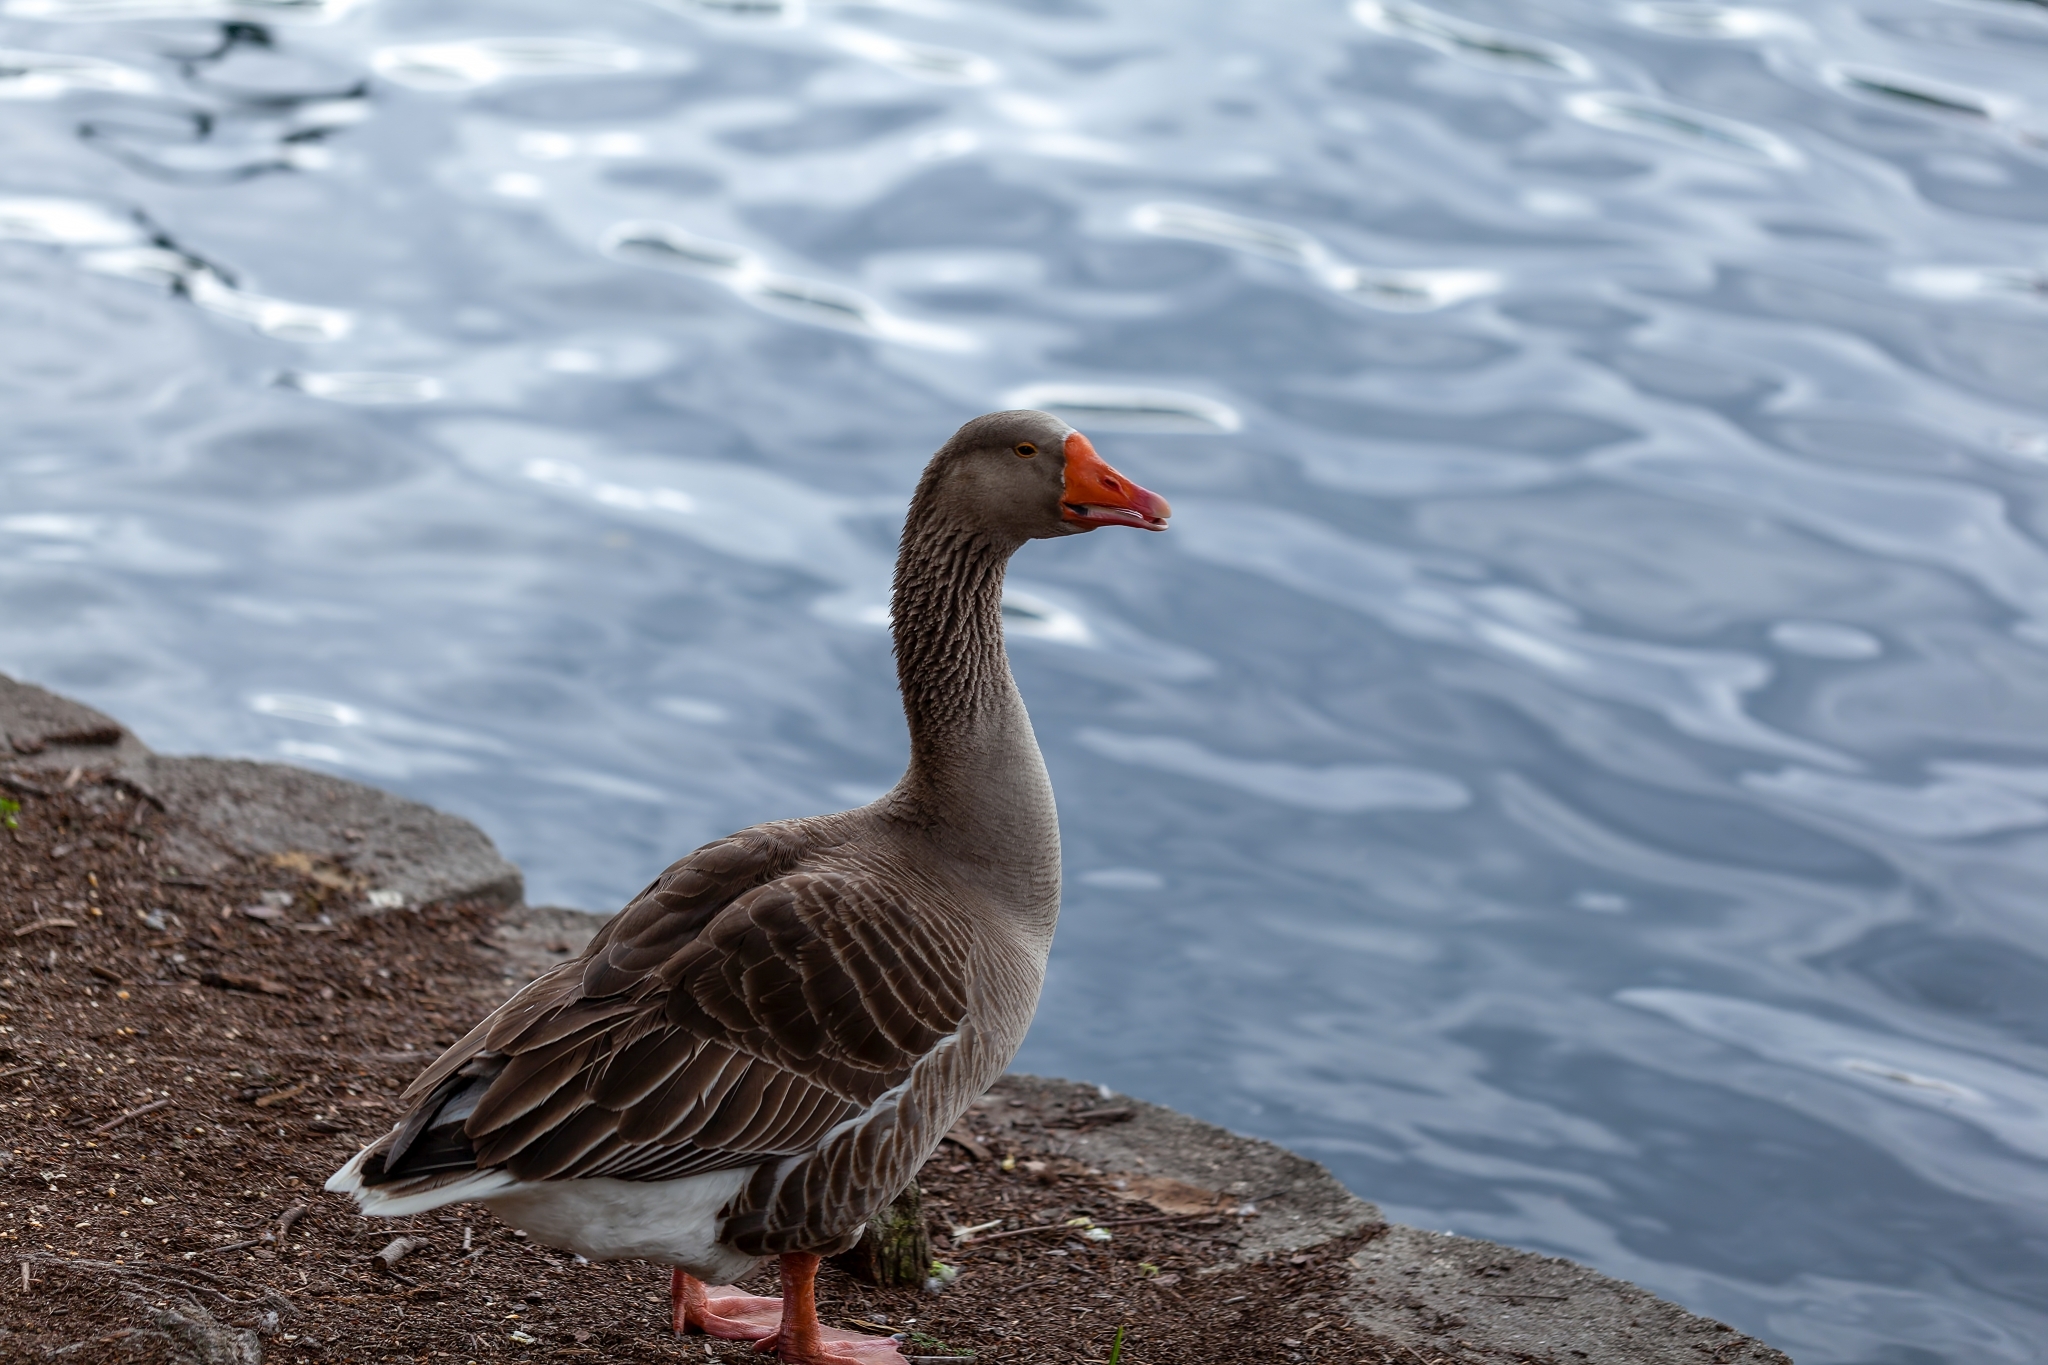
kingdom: Animalia
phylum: Chordata
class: Aves
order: Anseriformes
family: Anatidae
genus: Anser
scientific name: Anser anser
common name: Greylag goose
